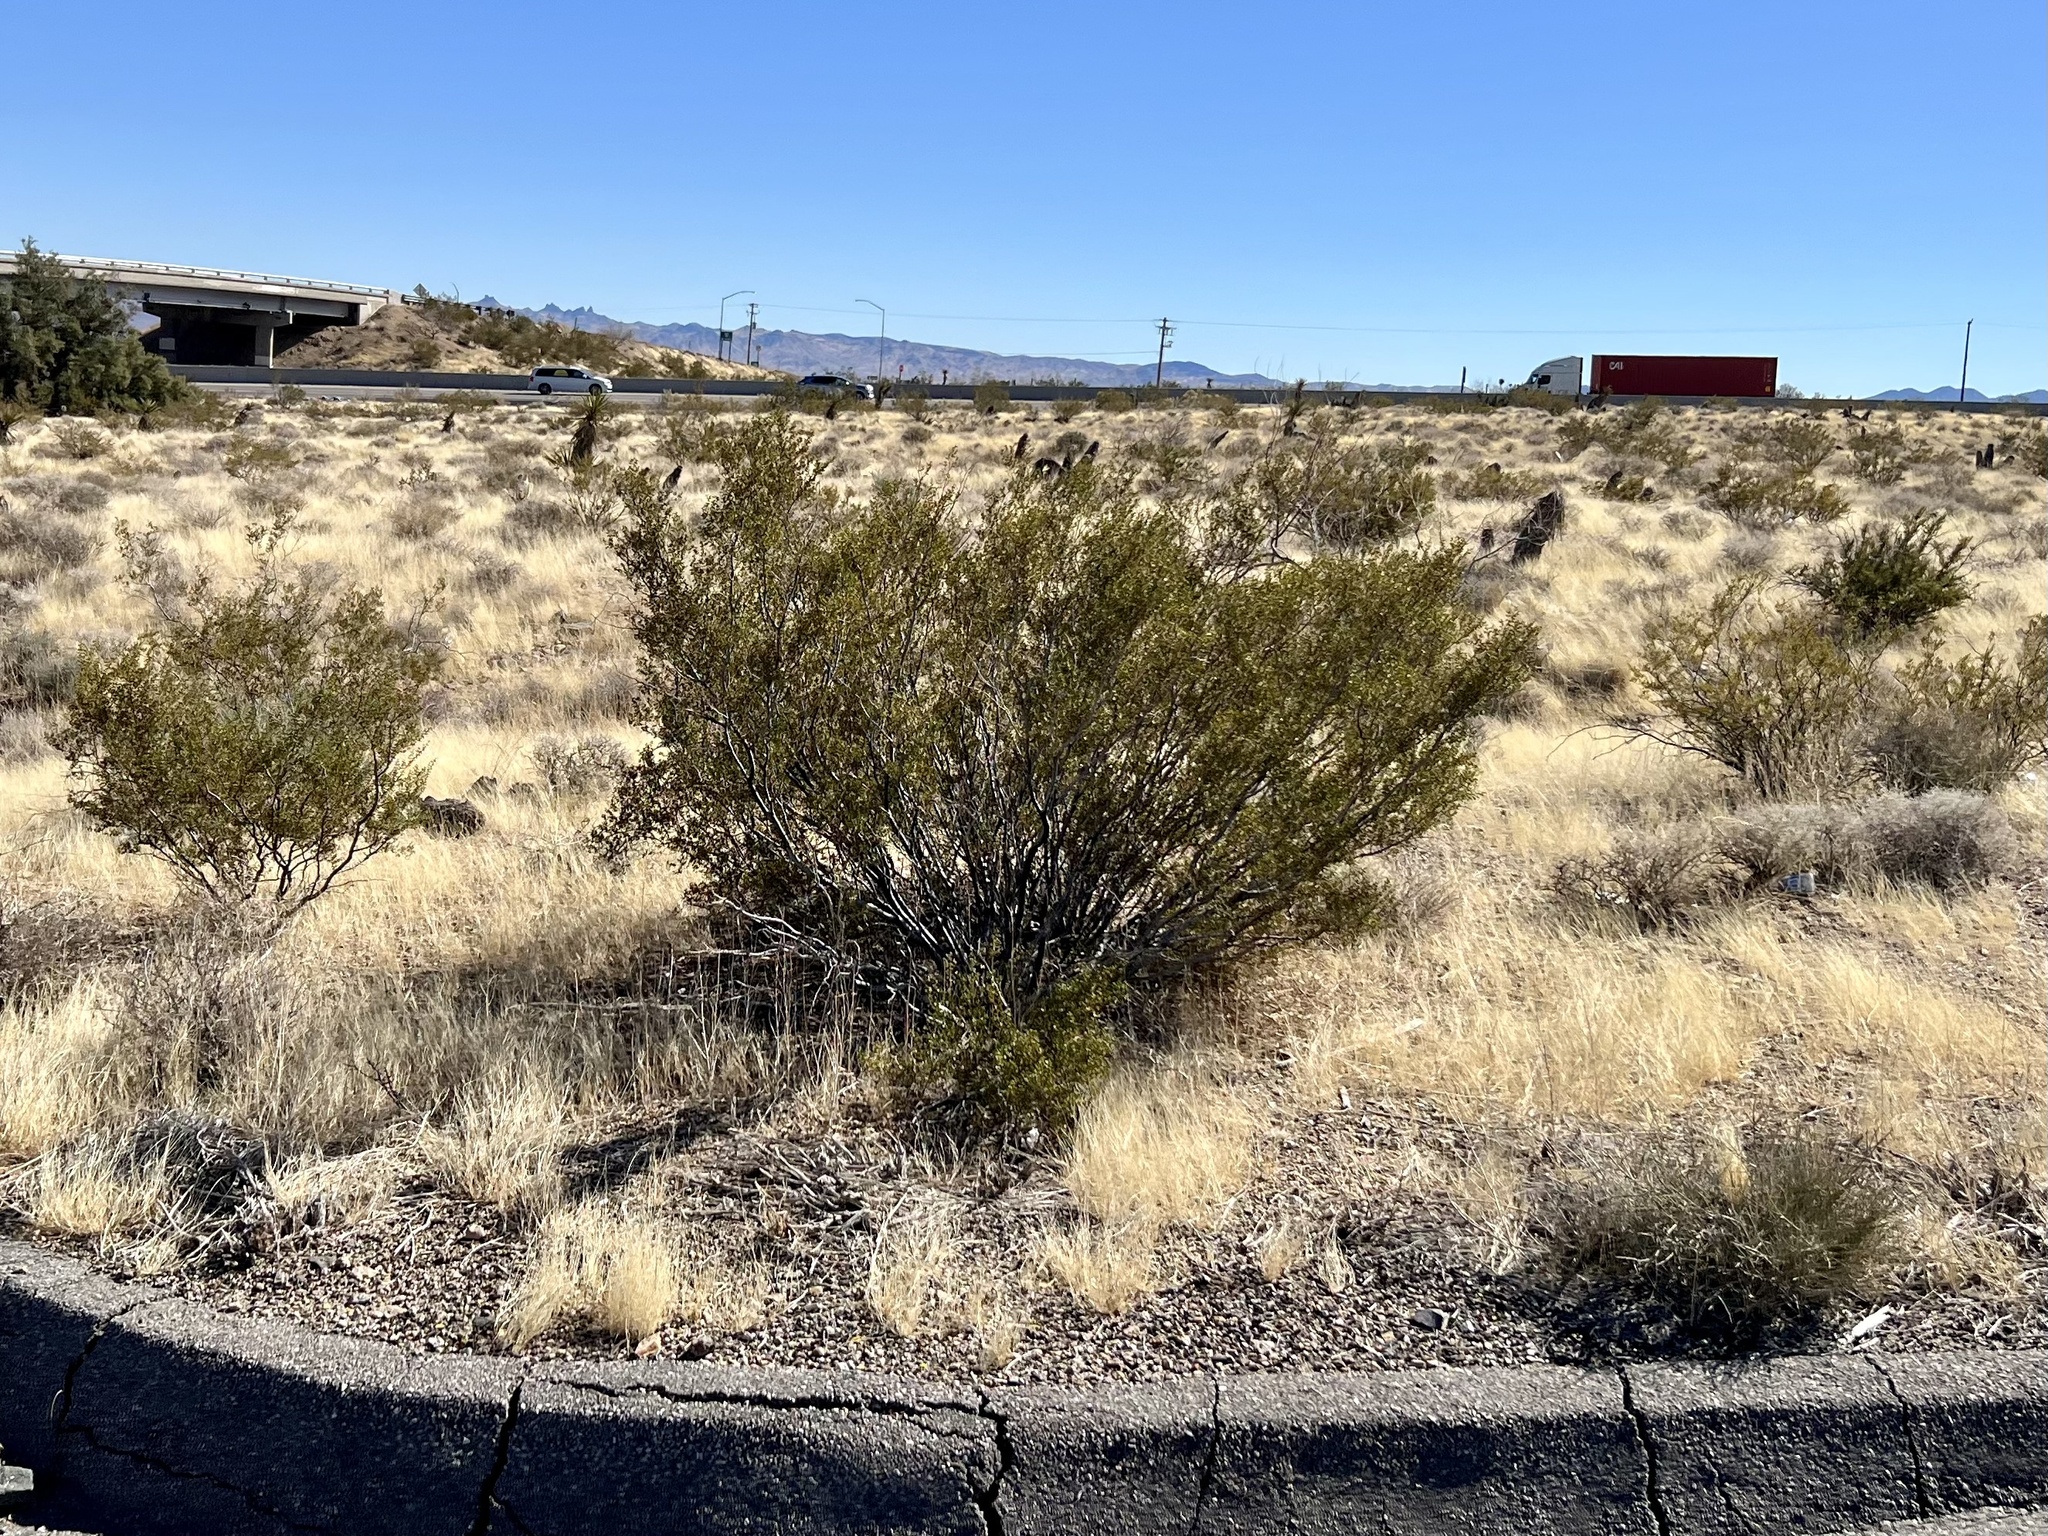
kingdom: Plantae
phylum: Tracheophyta
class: Magnoliopsida
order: Zygophyllales
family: Zygophyllaceae
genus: Larrea
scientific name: Larrea tridentata
